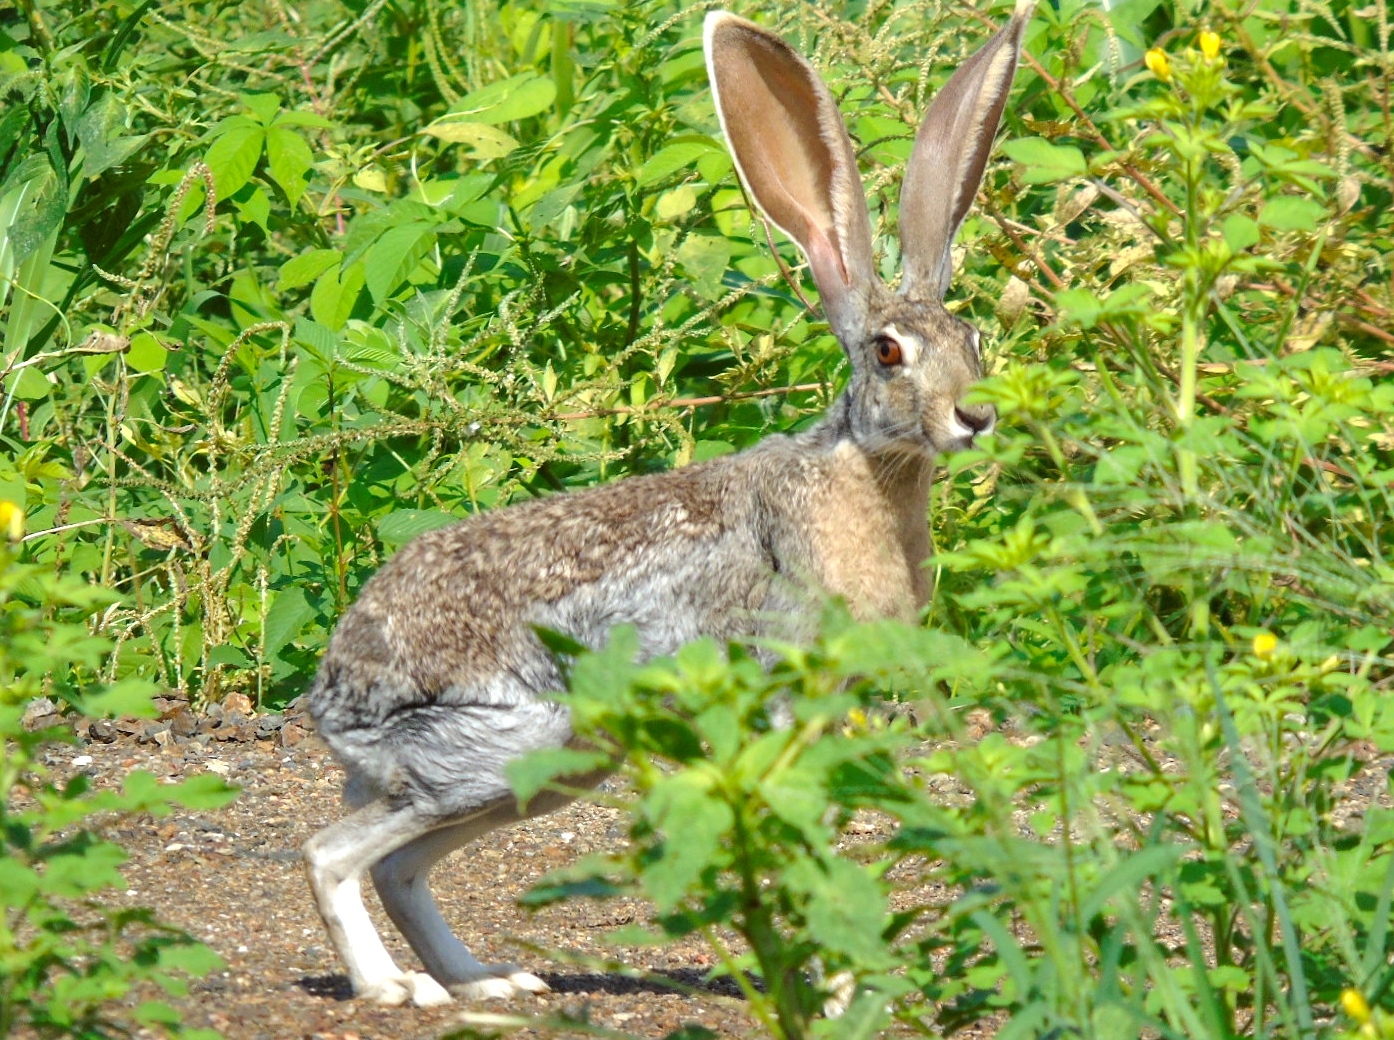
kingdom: Animalia
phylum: Chordata
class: Mammalia
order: Lagomorpha
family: Leporidae
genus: Lepus
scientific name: Lepus alleni
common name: Antelope jackrabbit
